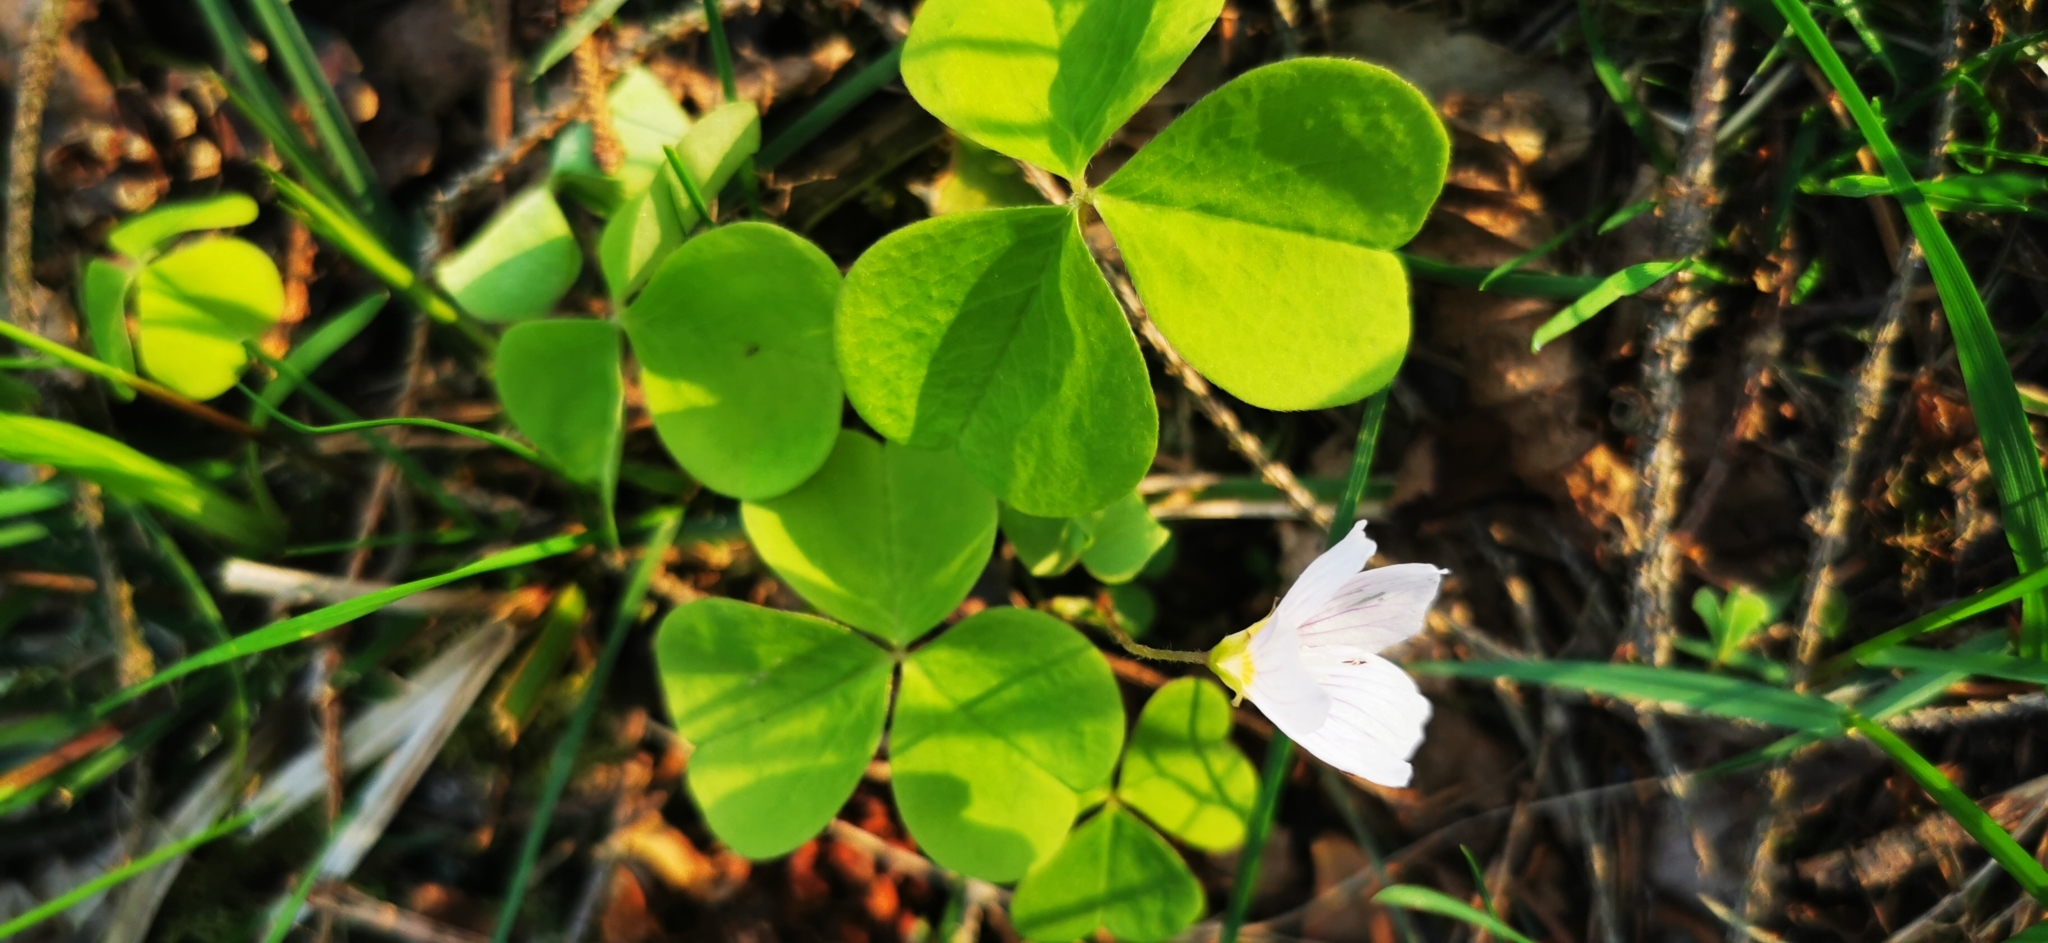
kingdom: Plantae
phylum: Tracheophyta
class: Magnoliopsida
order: Oxalidales
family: Oxalidaceae
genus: Oxalis
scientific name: Oxalis acetosella
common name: Wood-sorrel
